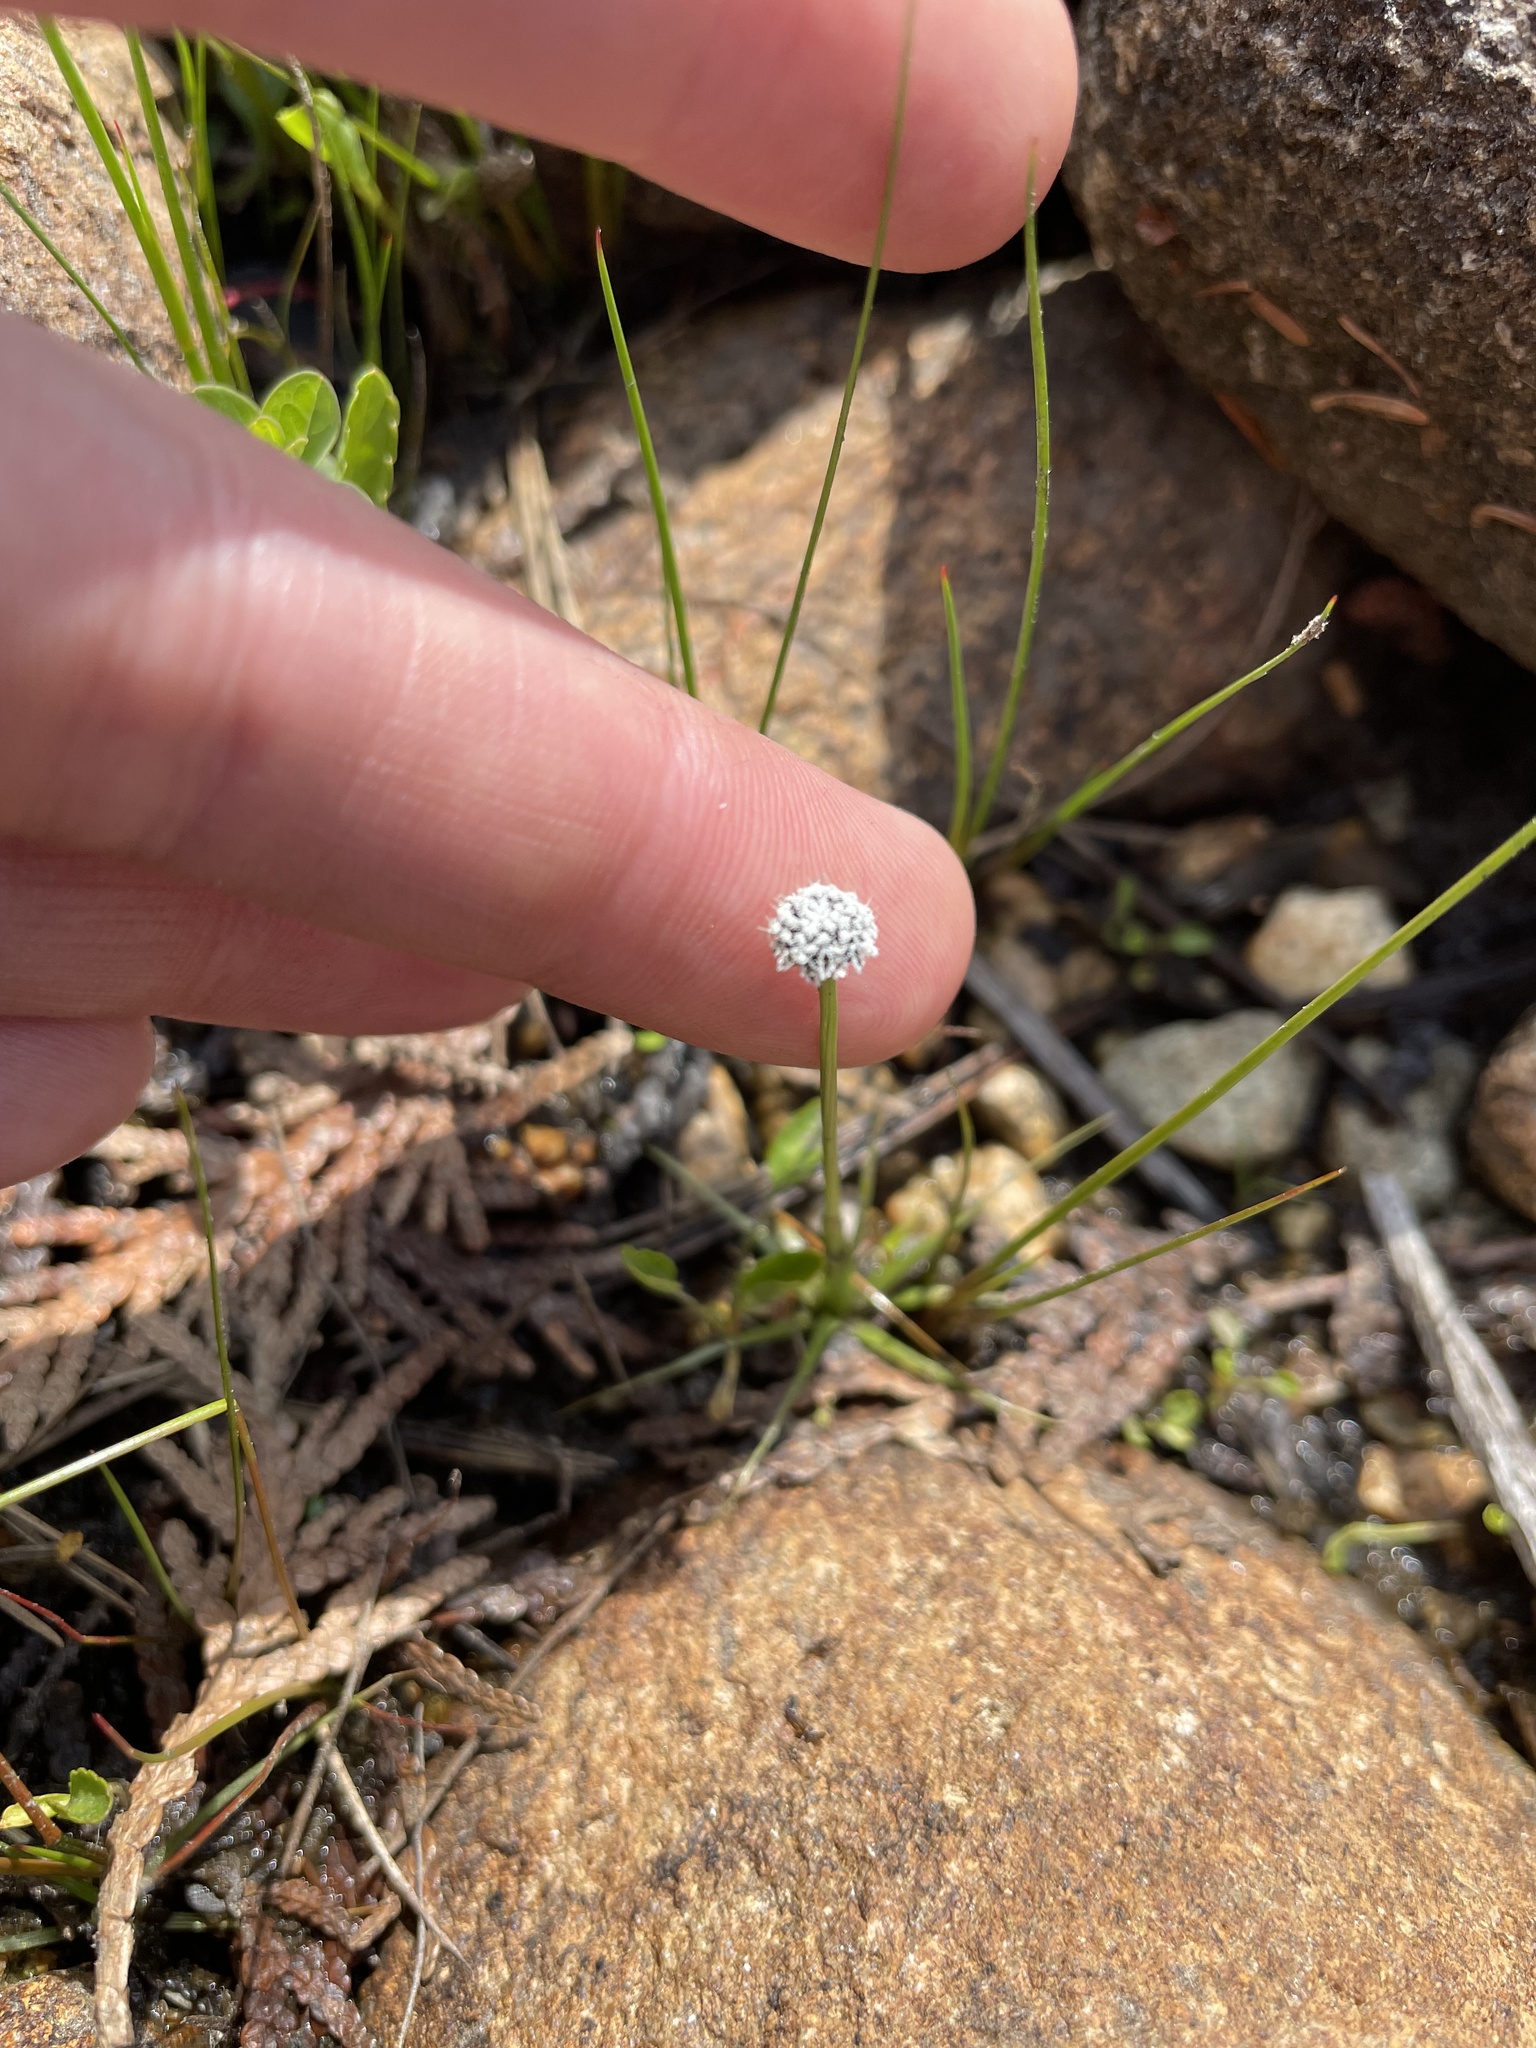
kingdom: Plantae
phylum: Tracheophyta
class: Liliopsida
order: Poales
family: Eriocaulaceae
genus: Eriocaulon
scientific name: Eriocaulon aquaticum
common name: Pipewort
